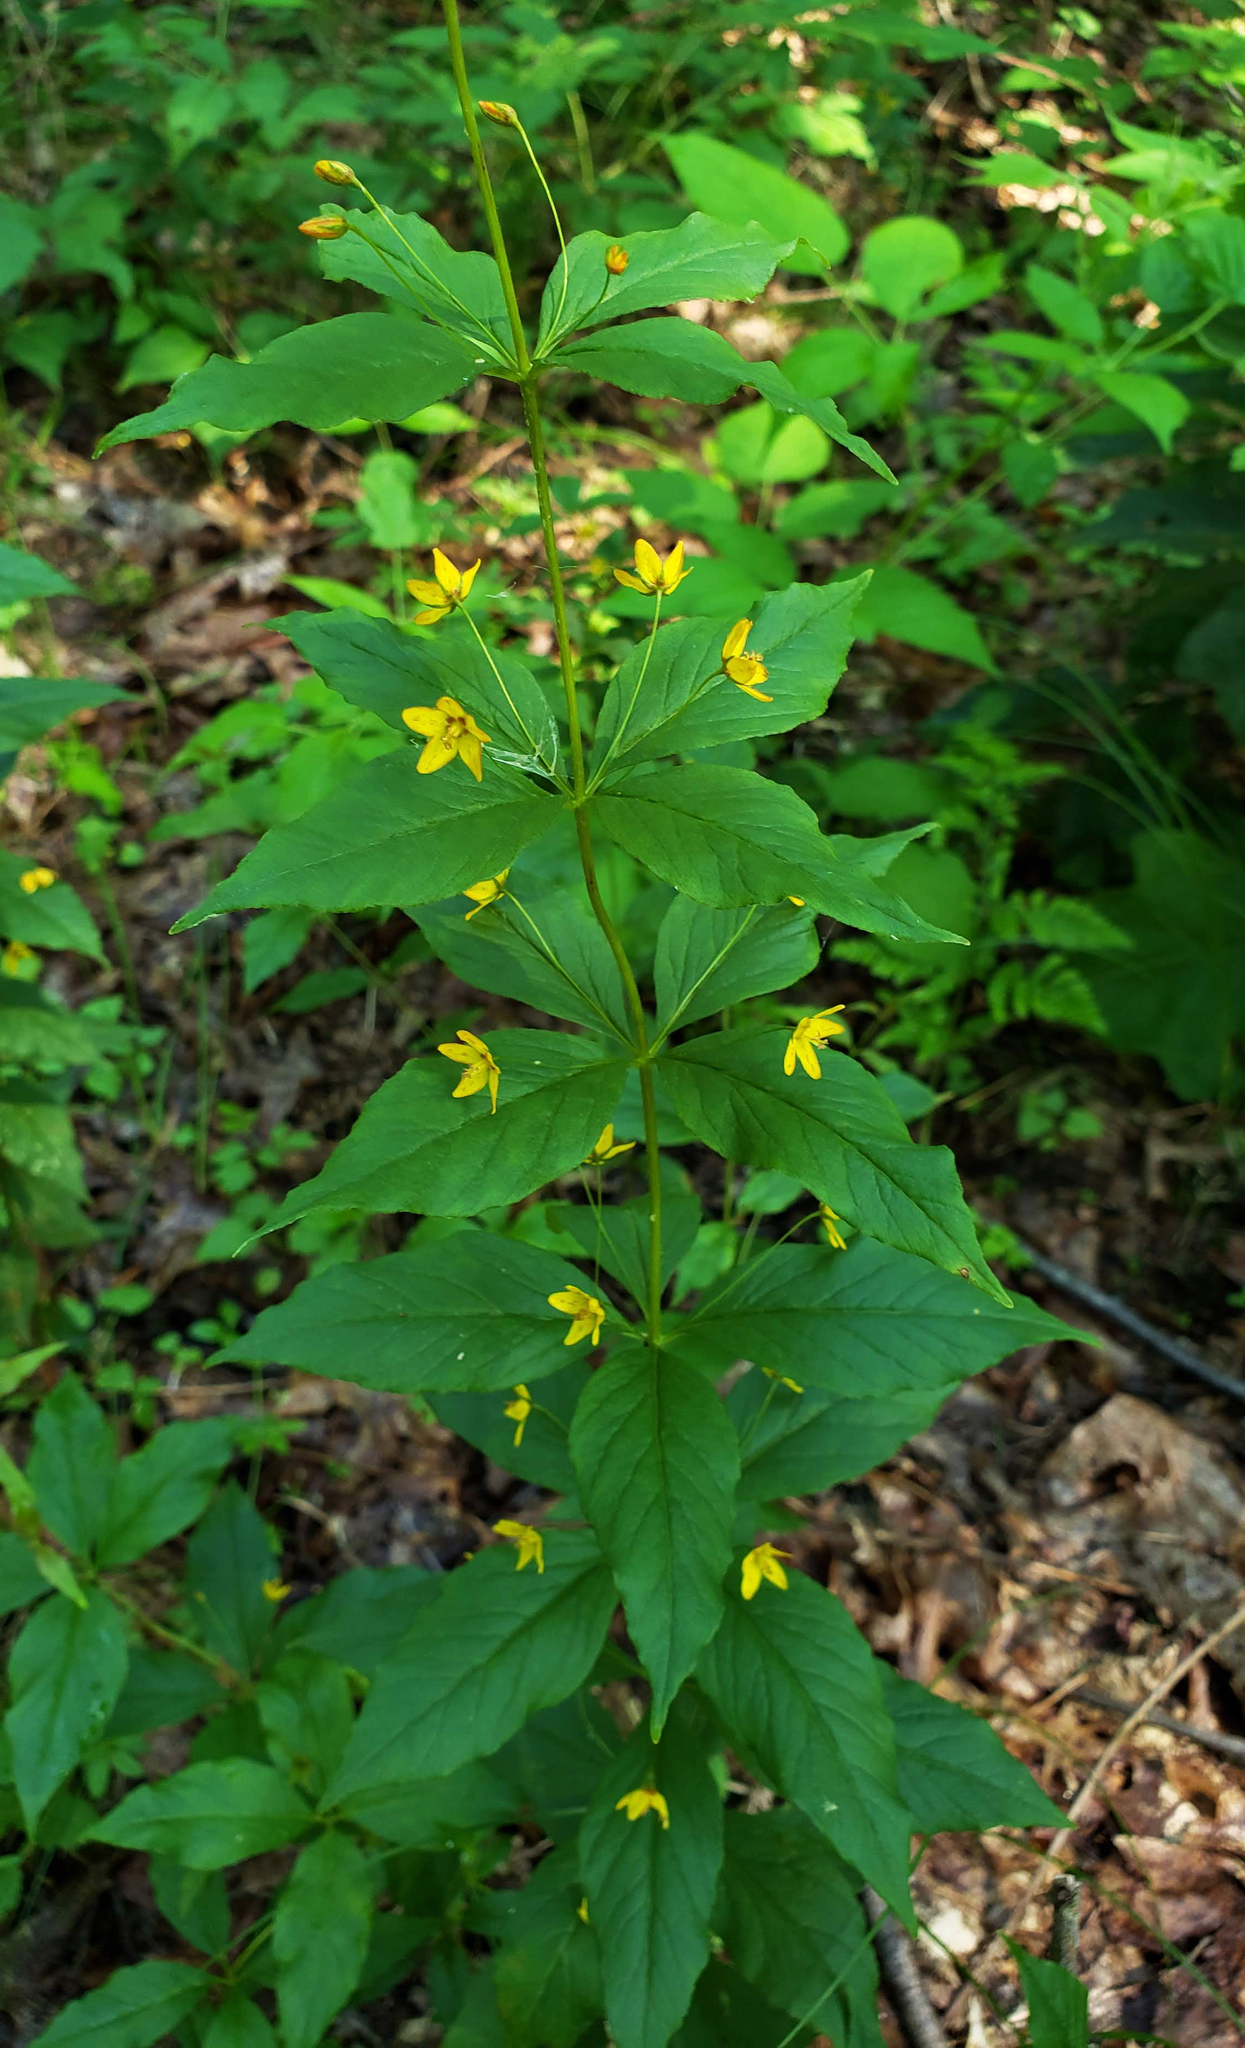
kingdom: Plantae
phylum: Tracheophyta
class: Magnoliopsida
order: Ericales
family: Primulaceae
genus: Lysimachia
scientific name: Lysimachia quadrifolia
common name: Whorled loosestrife
